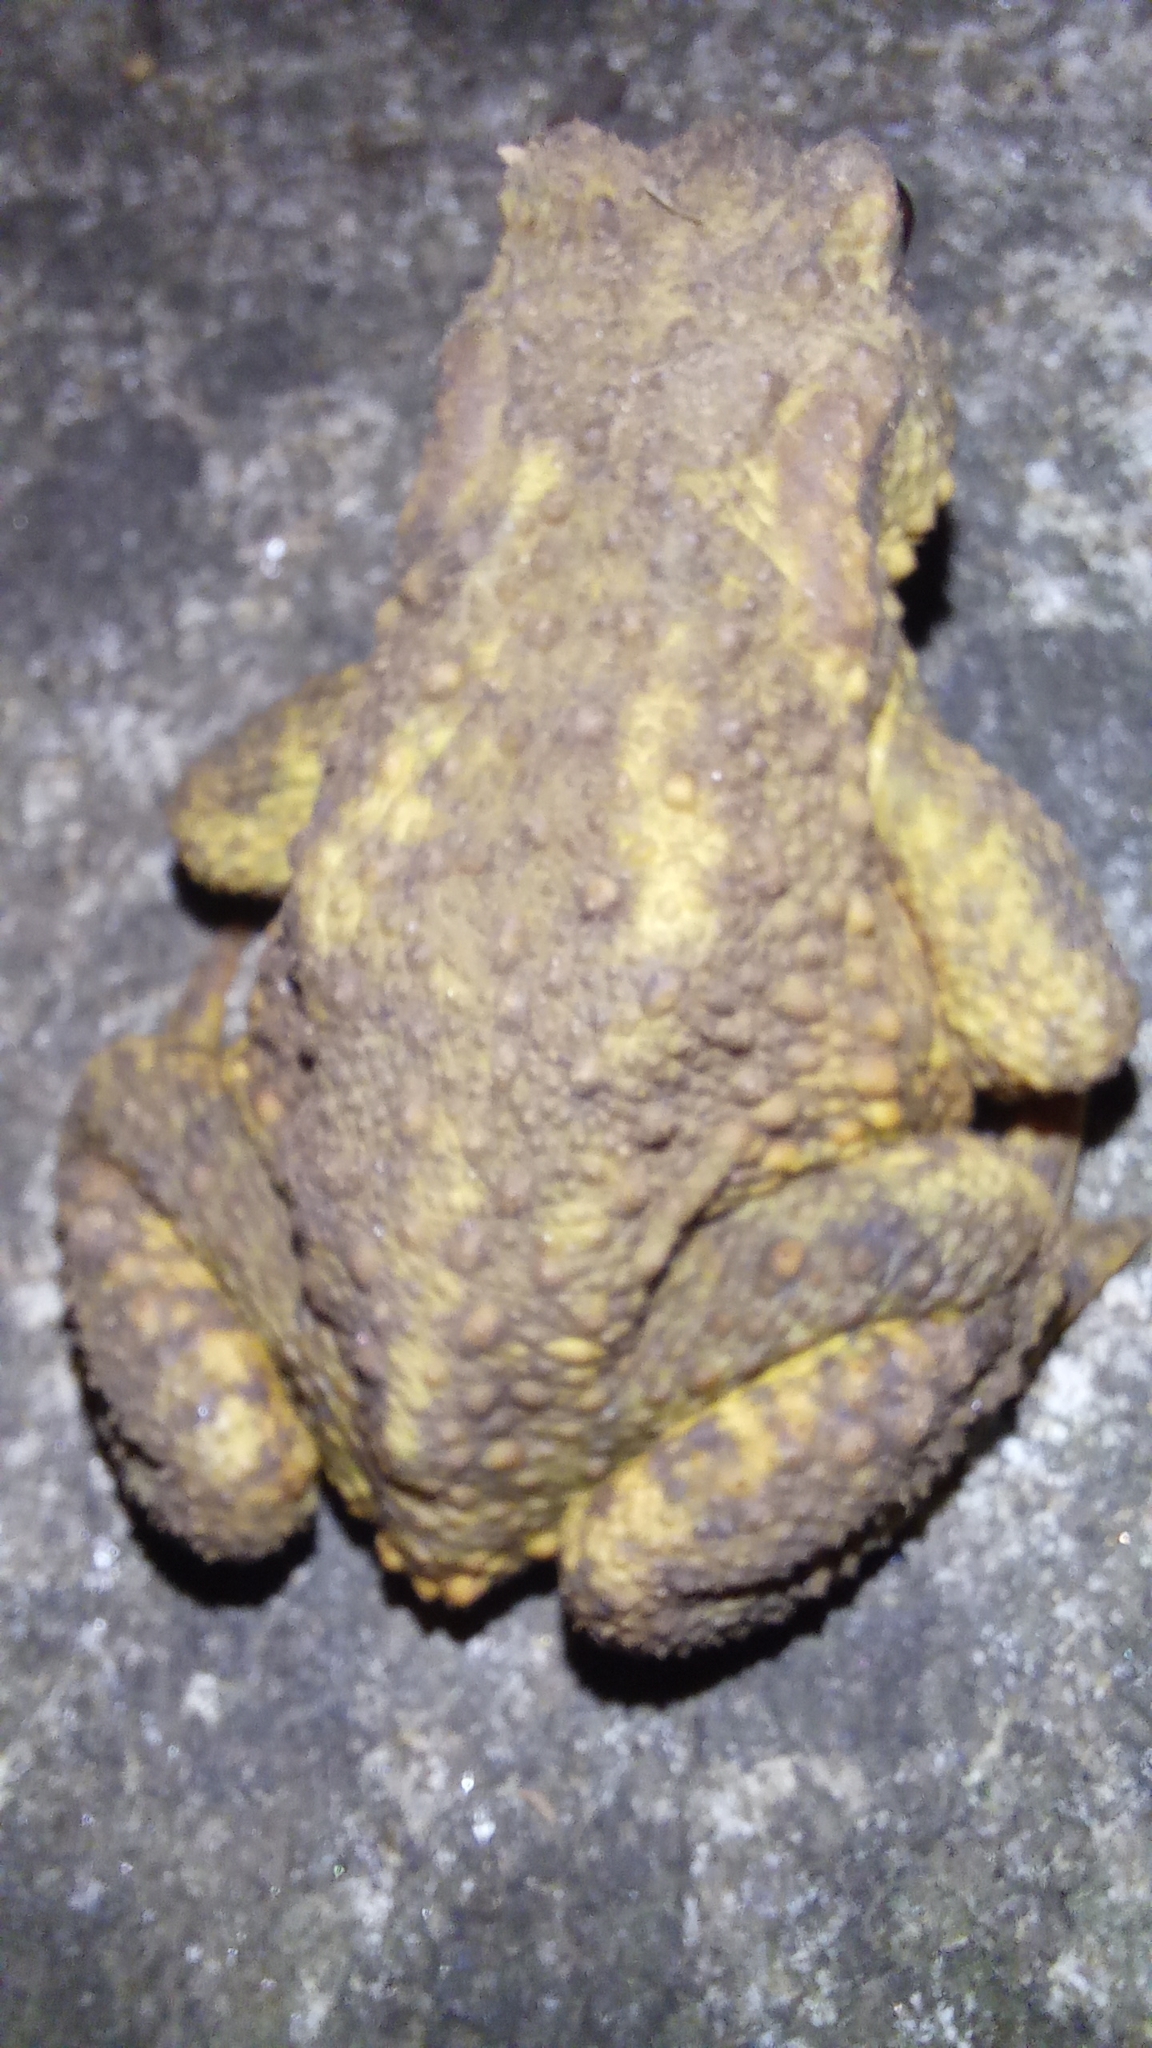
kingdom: Animalia
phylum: Chordata
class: Amphibia
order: Anura
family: Bufonidae
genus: Bufo
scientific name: Bufo spinosus
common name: Western common toad
